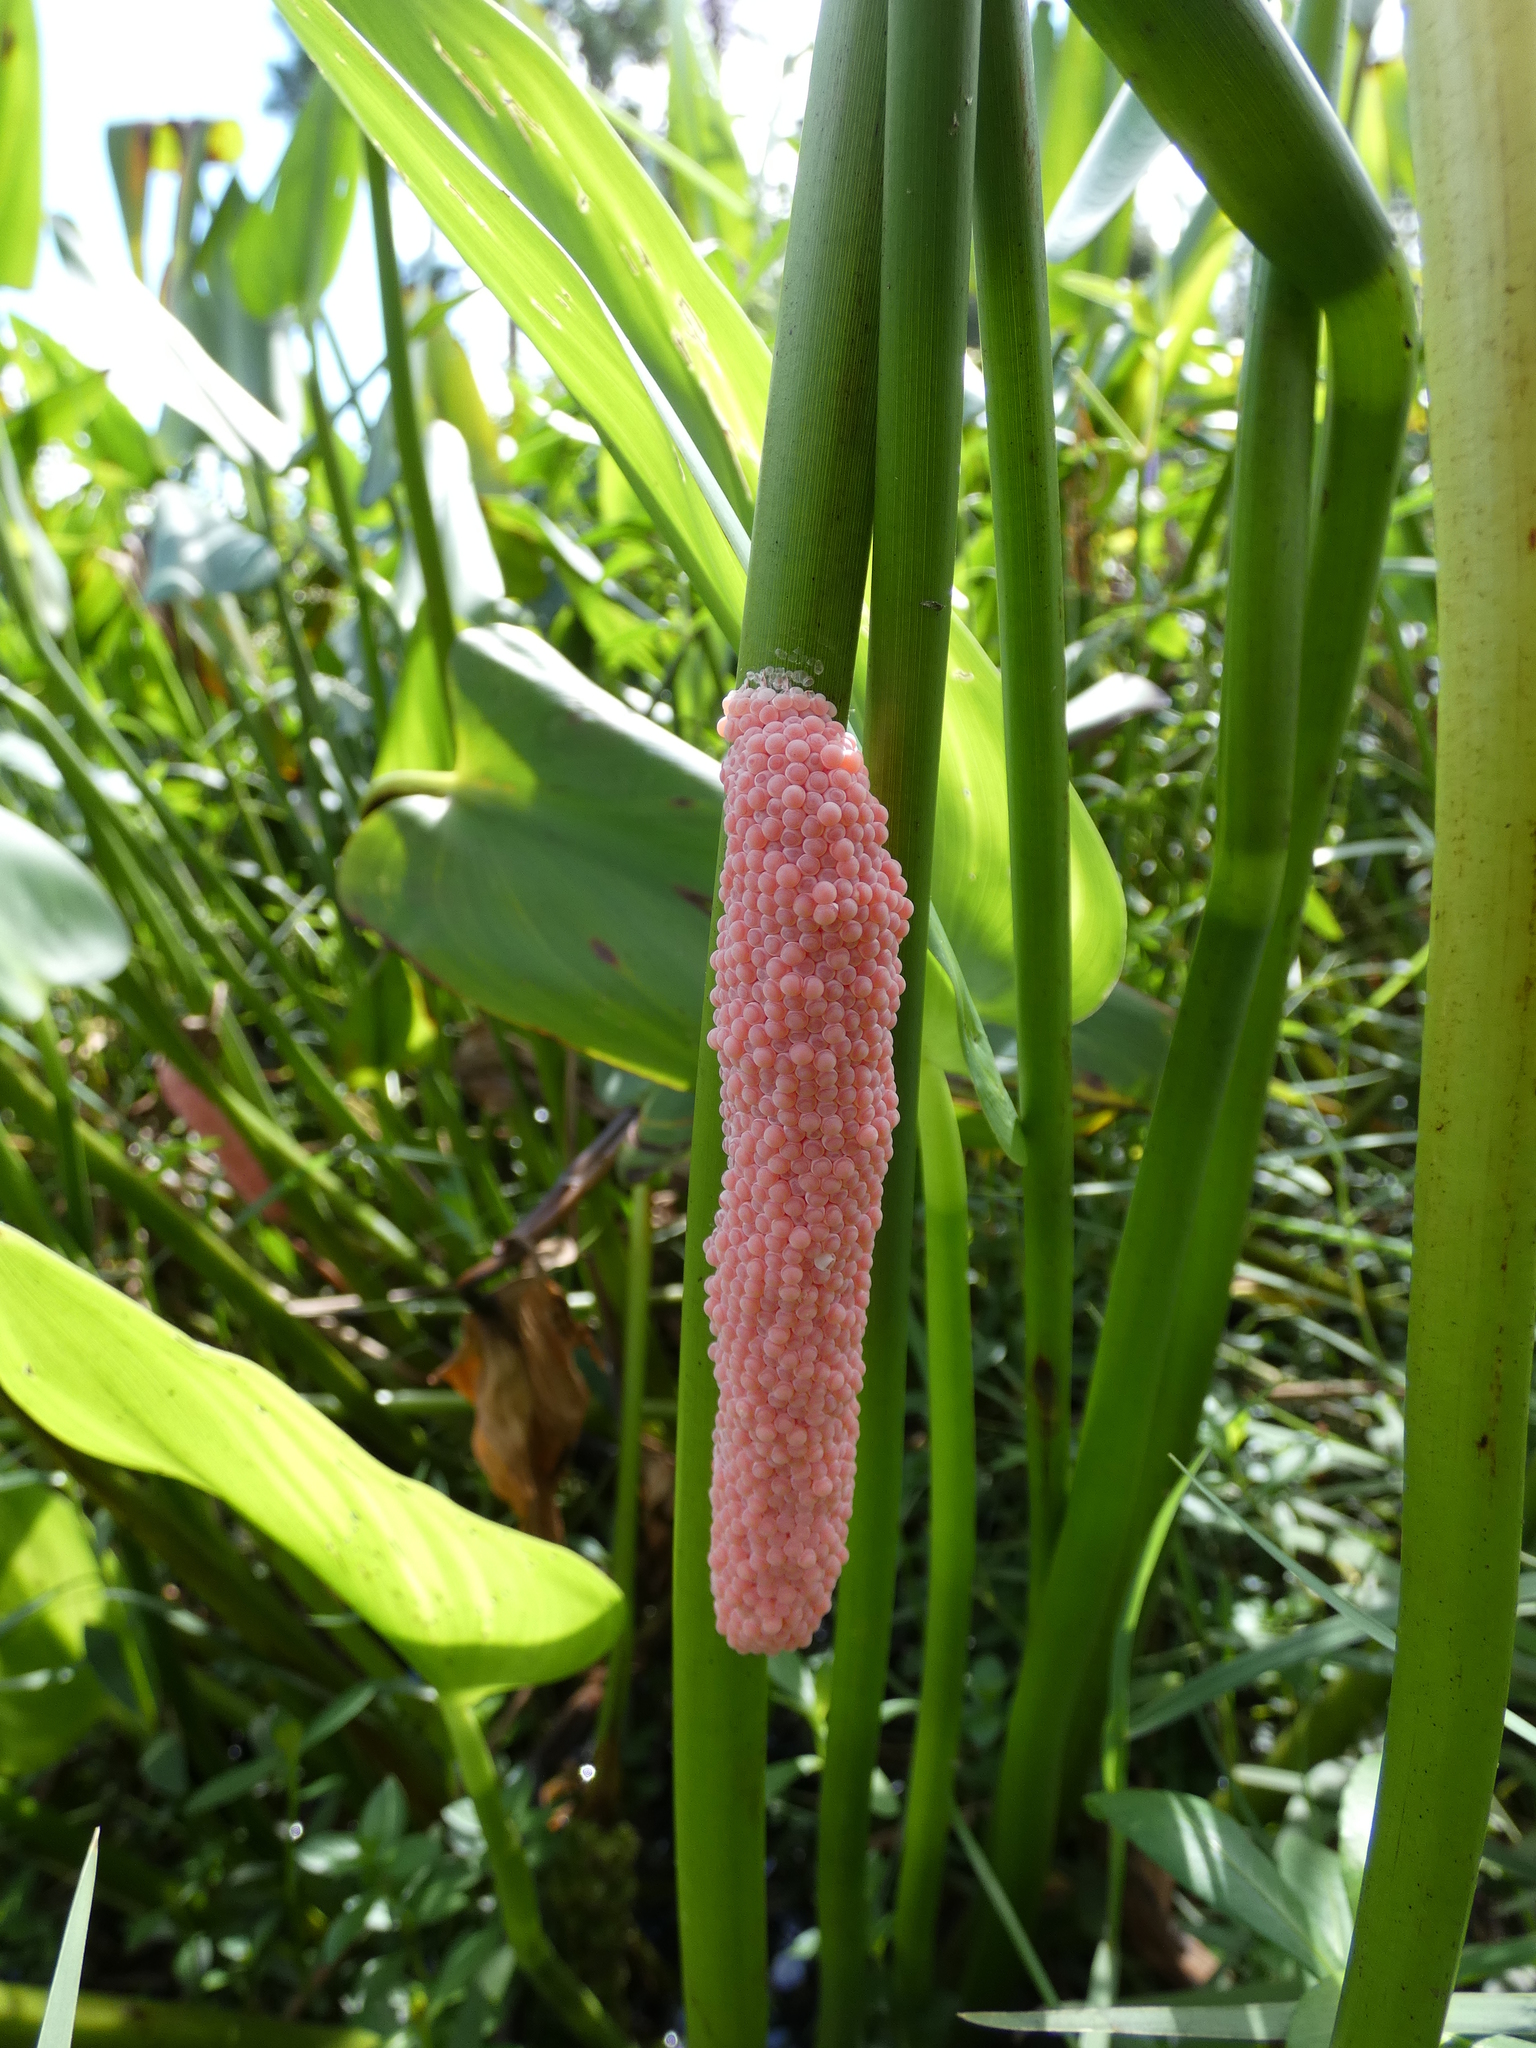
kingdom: Animalia
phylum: Mollusca
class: Gastropoda
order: Architaenioglossa
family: Ampullariidae
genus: Pomacea
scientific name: Pomacea maculata
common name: Giant applesnail
